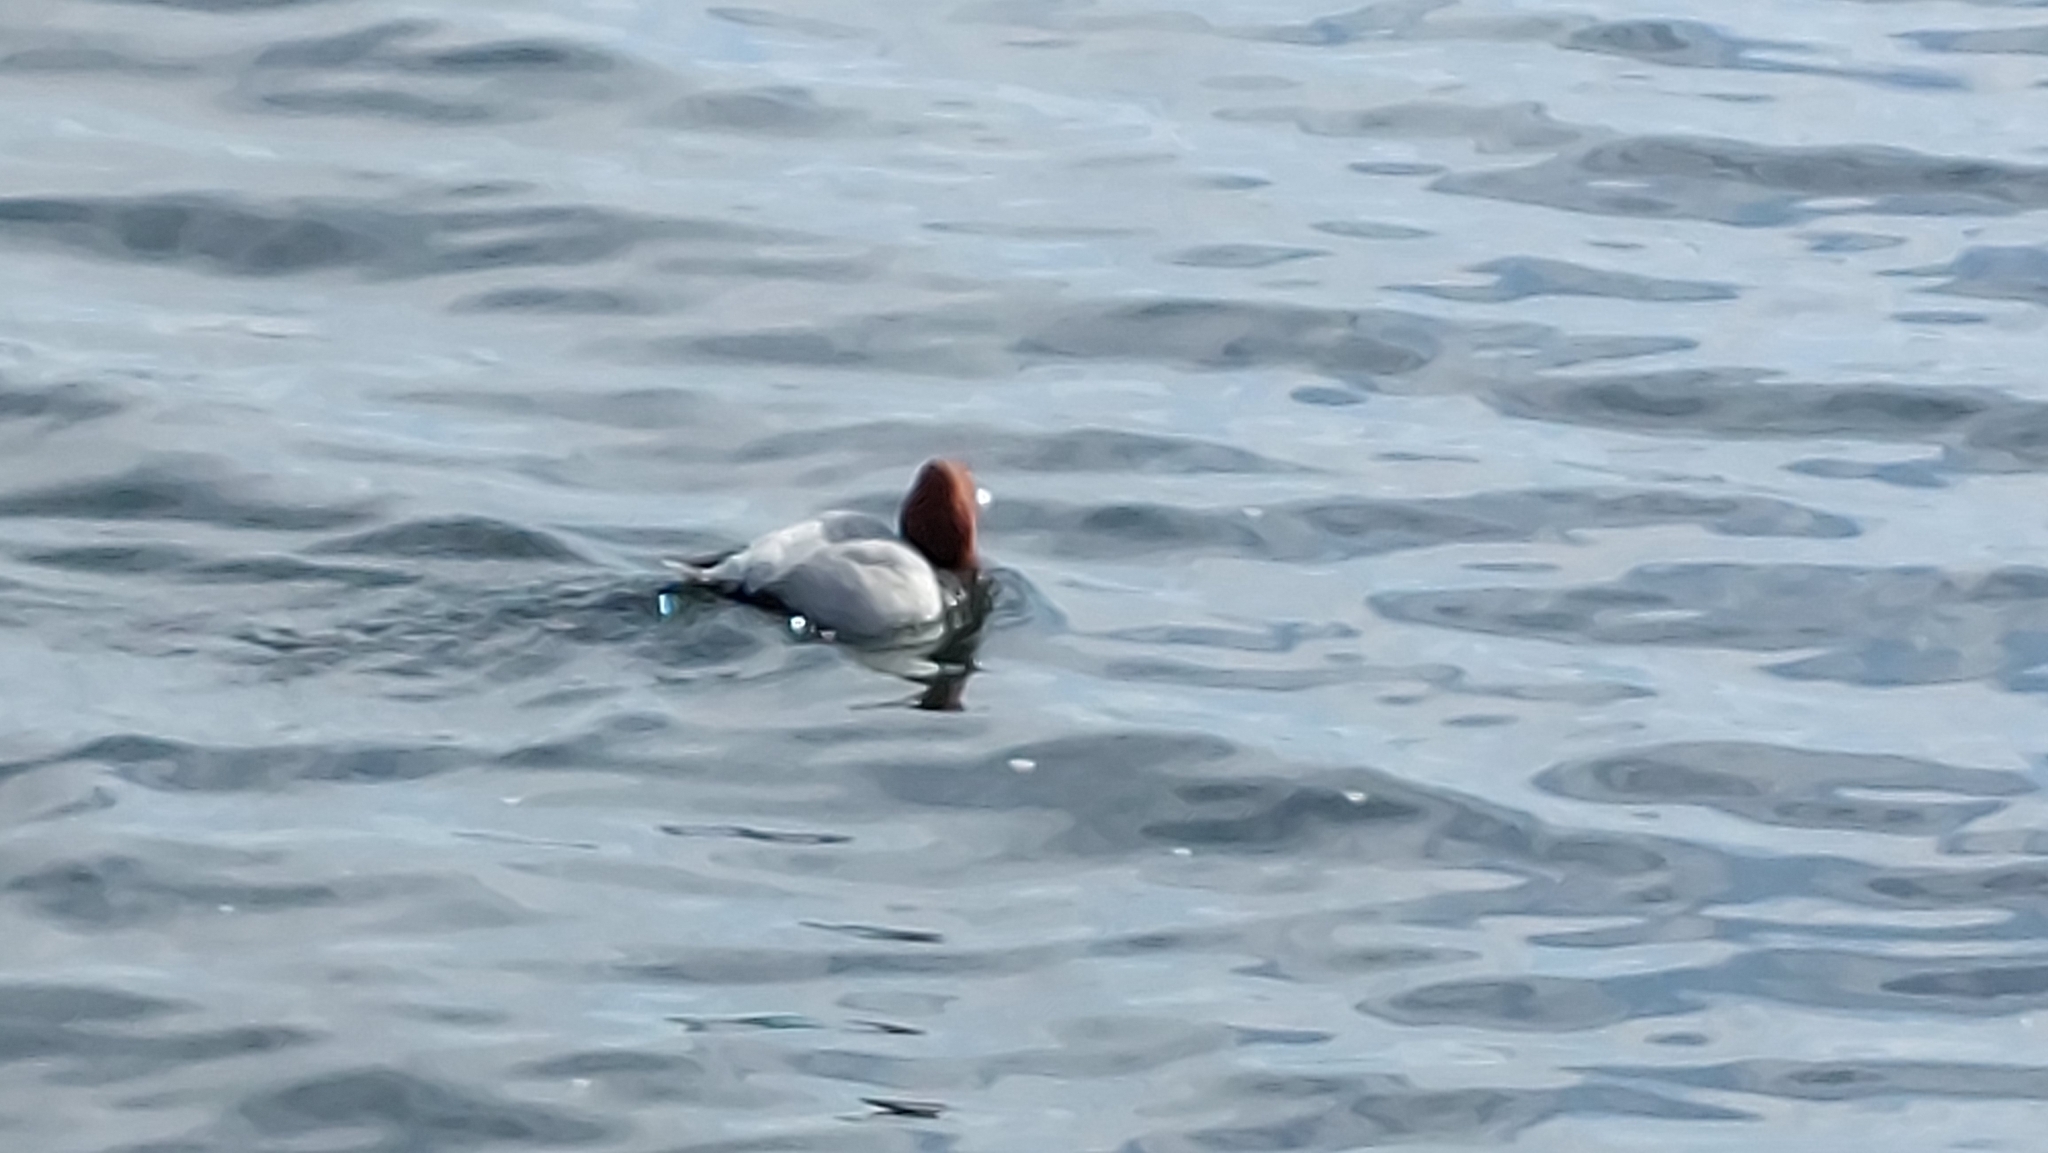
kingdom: Animalia
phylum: Chordata
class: Aves
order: Anseriformes
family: Anatidae
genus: Aythya
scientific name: Aythya ferina
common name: Common pochard
